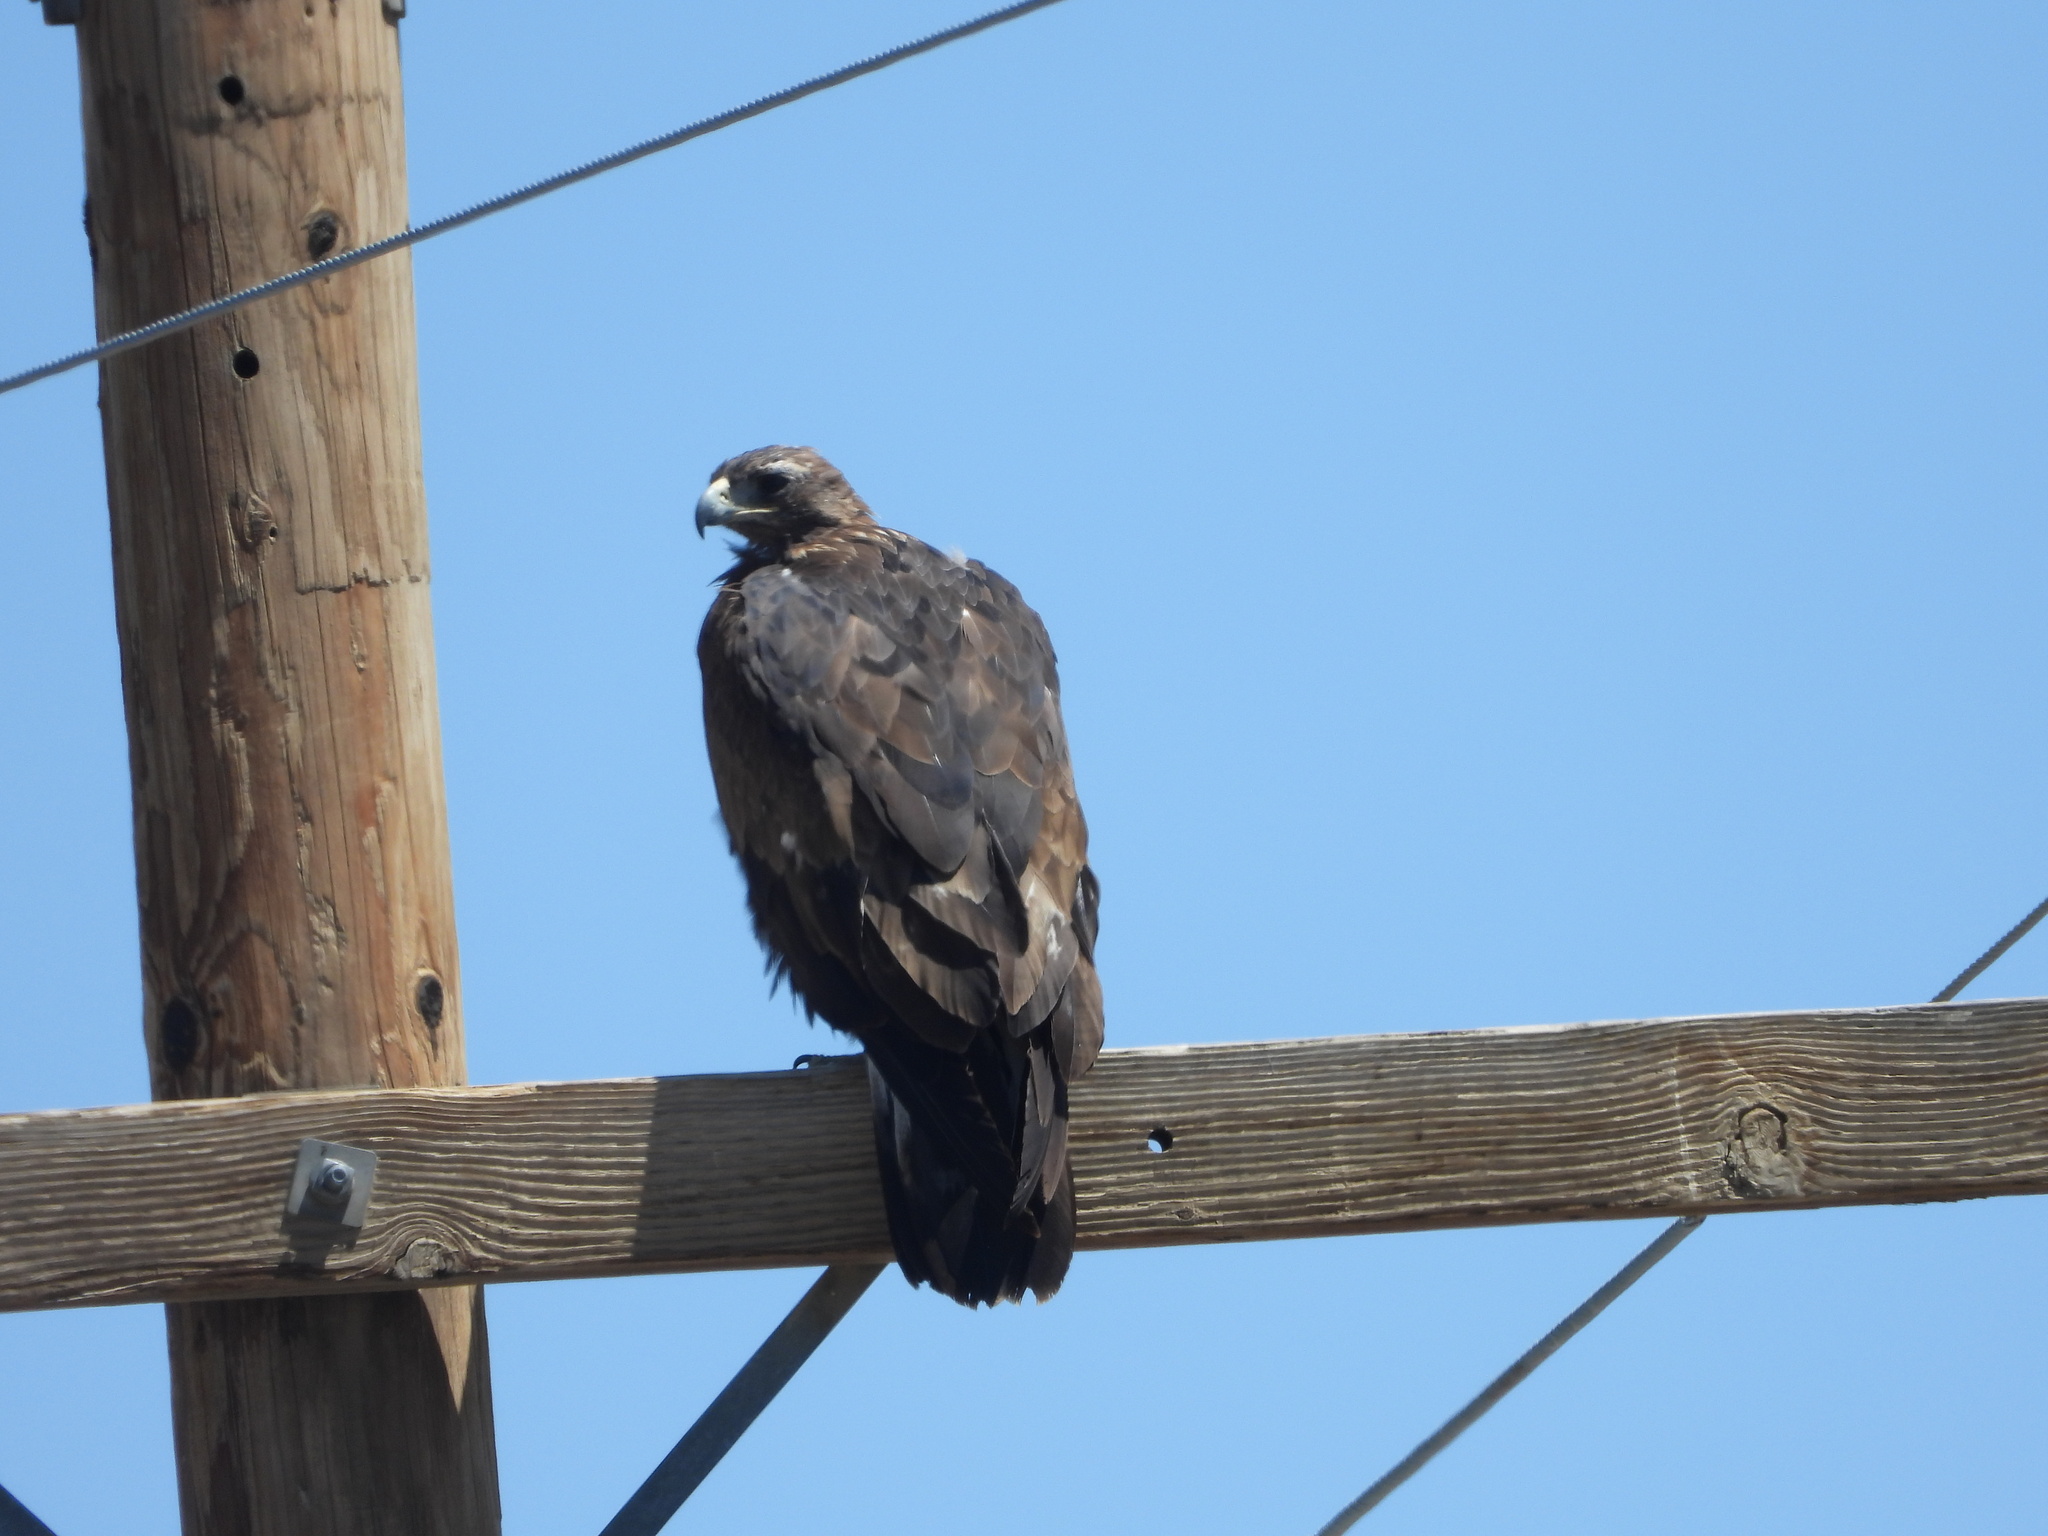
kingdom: Animalia
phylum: Chordata
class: Aves
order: Accipitriformes
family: Accipitridae
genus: Aquila
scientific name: Aquila chrysaetos
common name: Golden eagle
